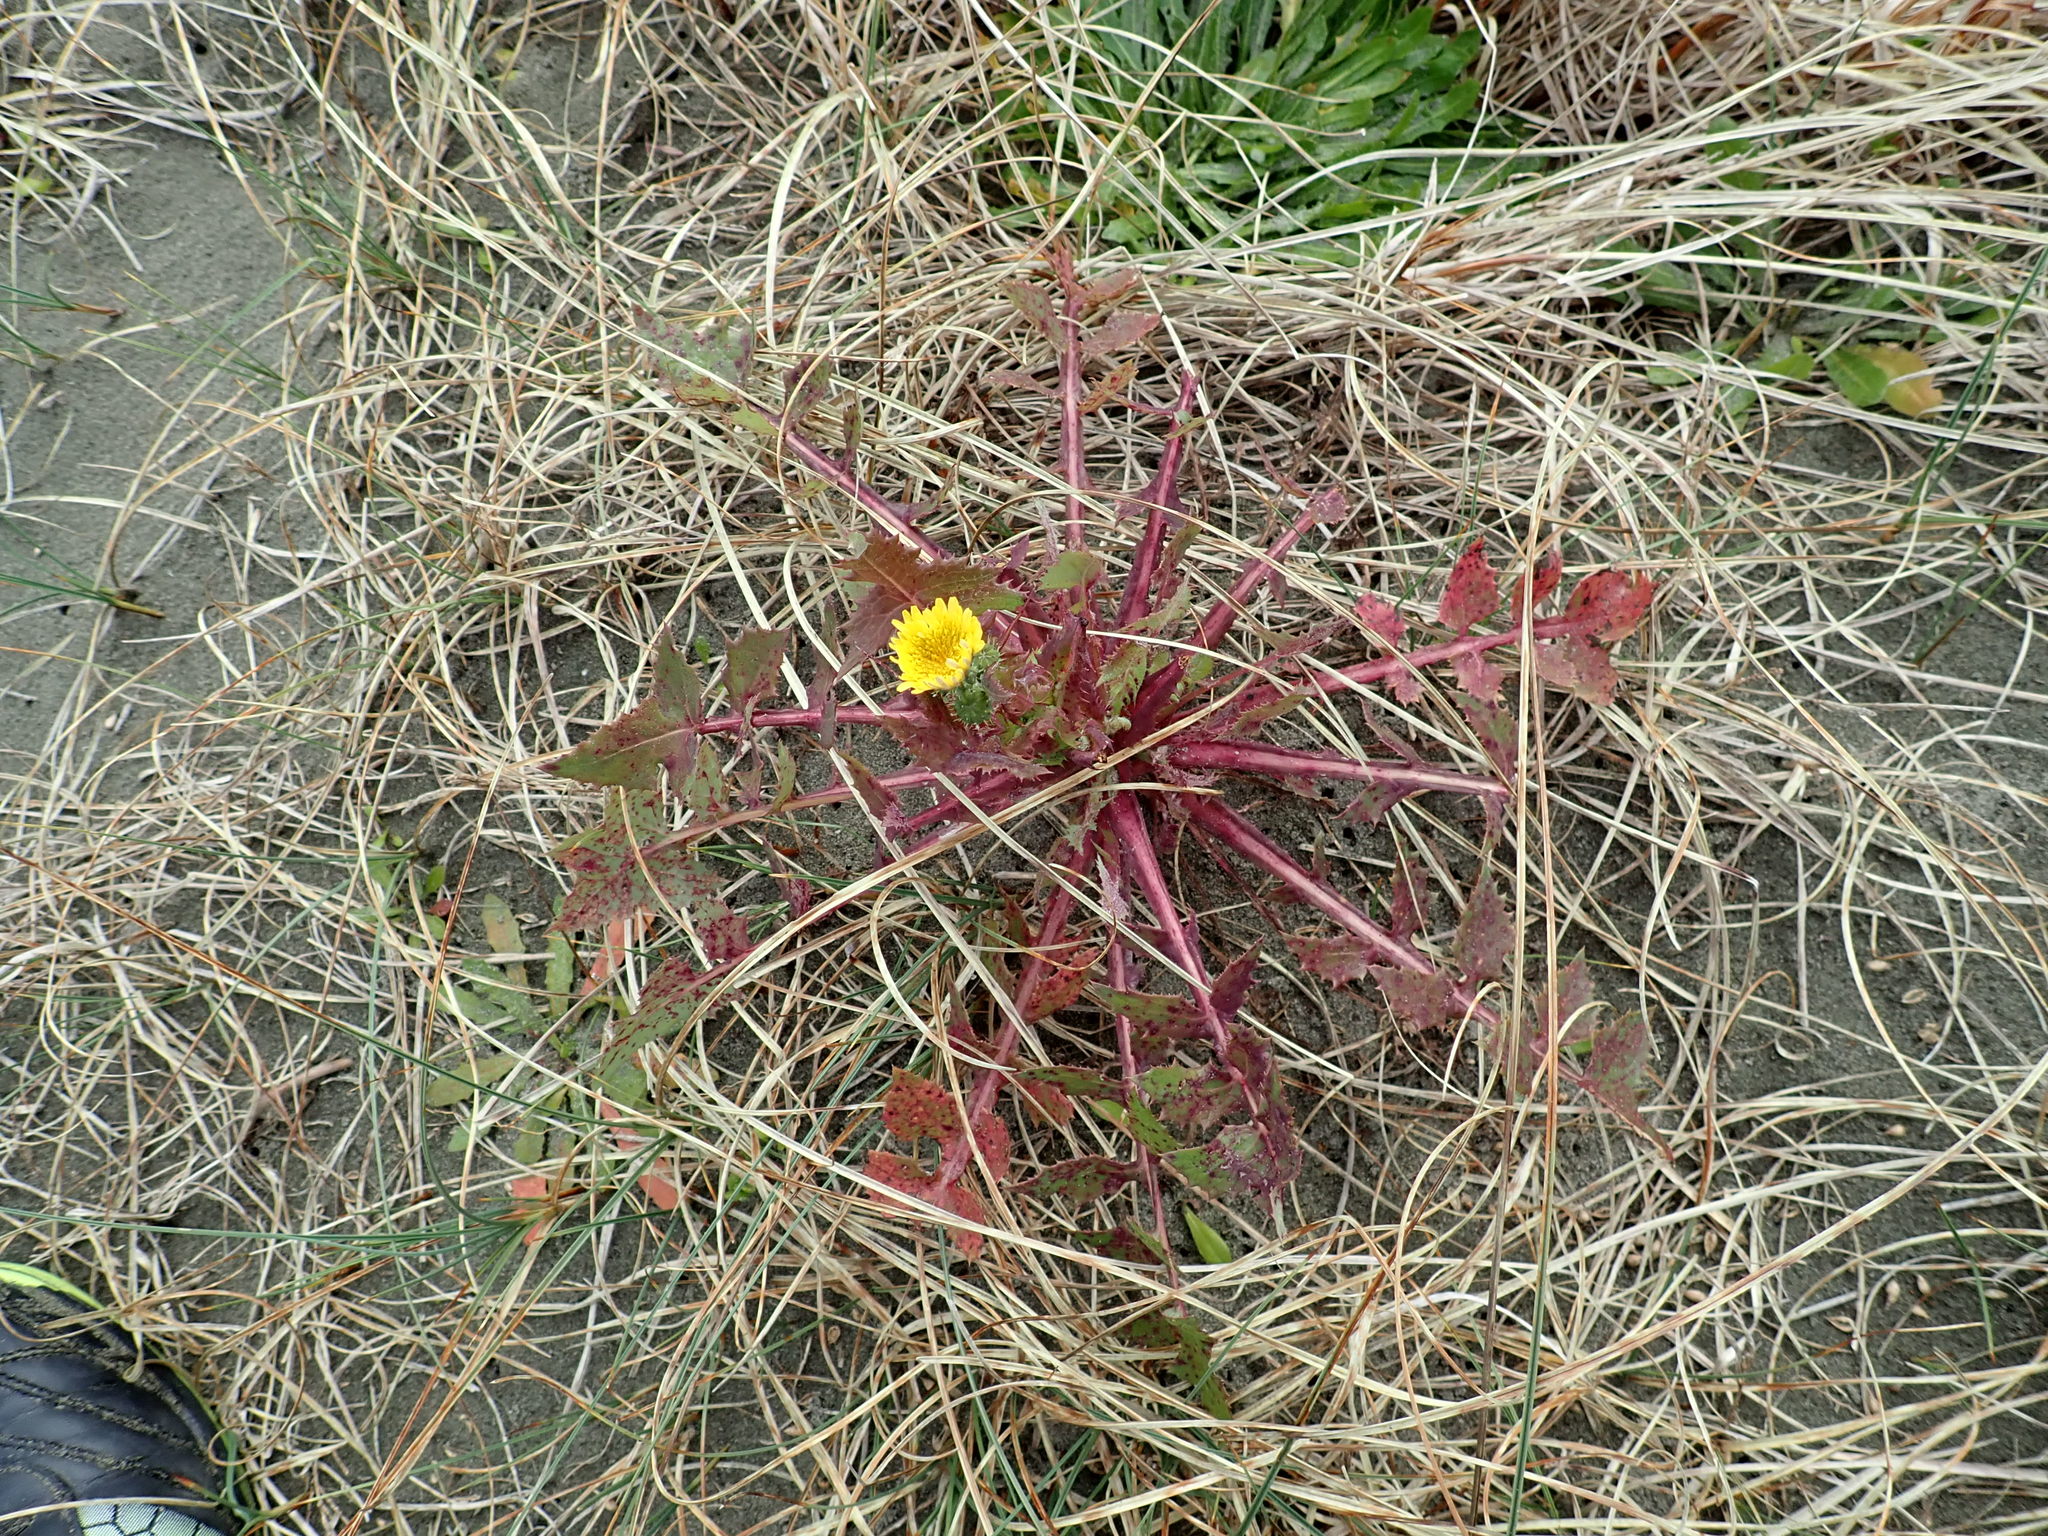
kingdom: Plantae
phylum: Tracheophyta
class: Magnoliopsida
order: Asterales
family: Asteraceae
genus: Sonchus
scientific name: Sonchus oleraceus
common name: Common sowthistle
